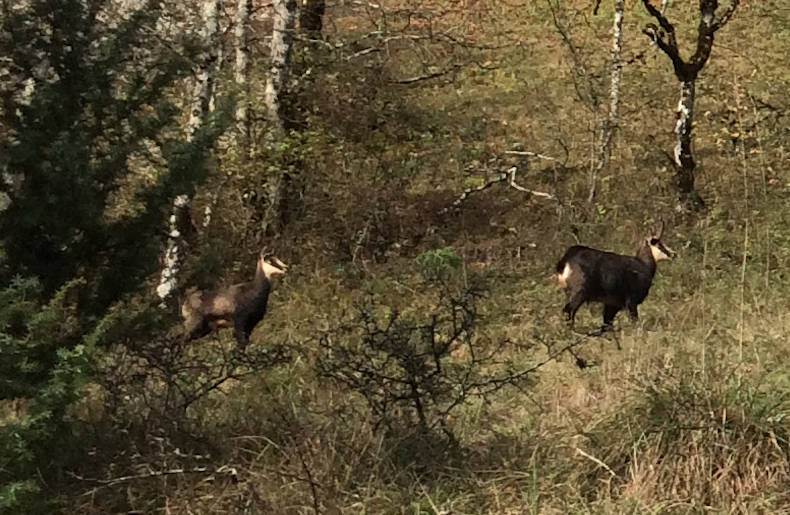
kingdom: Animalia
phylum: Chordata
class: Mammalia
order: Artiodactyla
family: Bovidae
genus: Rupicapra
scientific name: Rupicapra rupicapra
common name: Chamois
